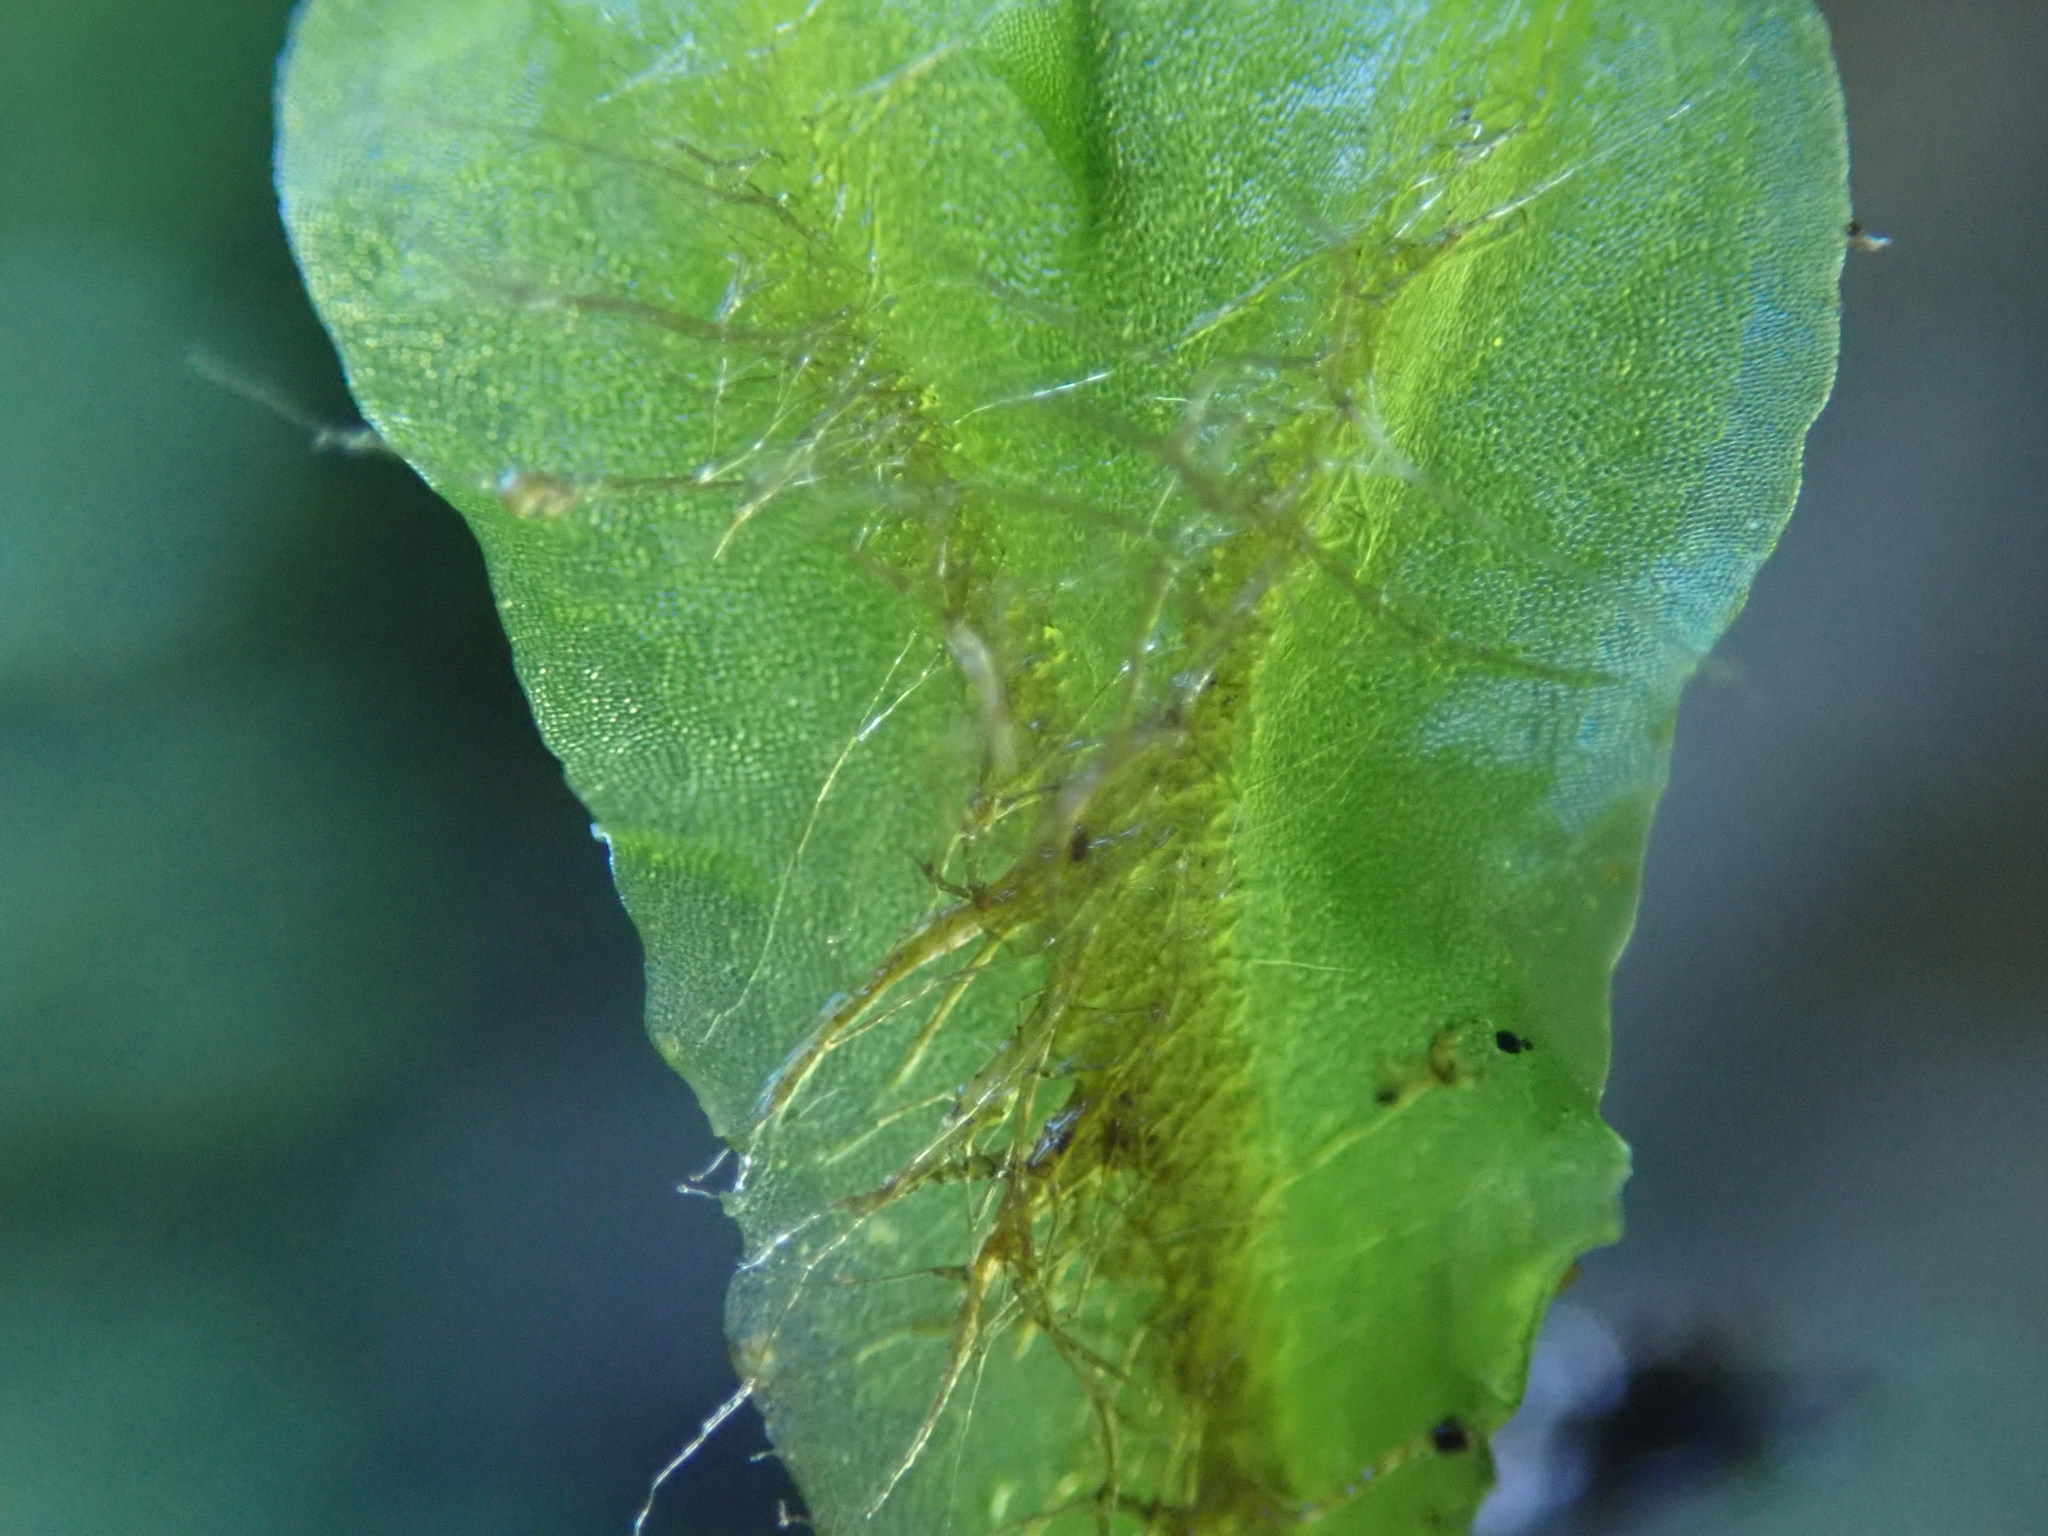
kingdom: Plantae
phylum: Marchantiophyta
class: Jungermanniopsida
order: Pelliales
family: Pelliaceae
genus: Pellia
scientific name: Pellia neesiana
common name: Nees  pellia
